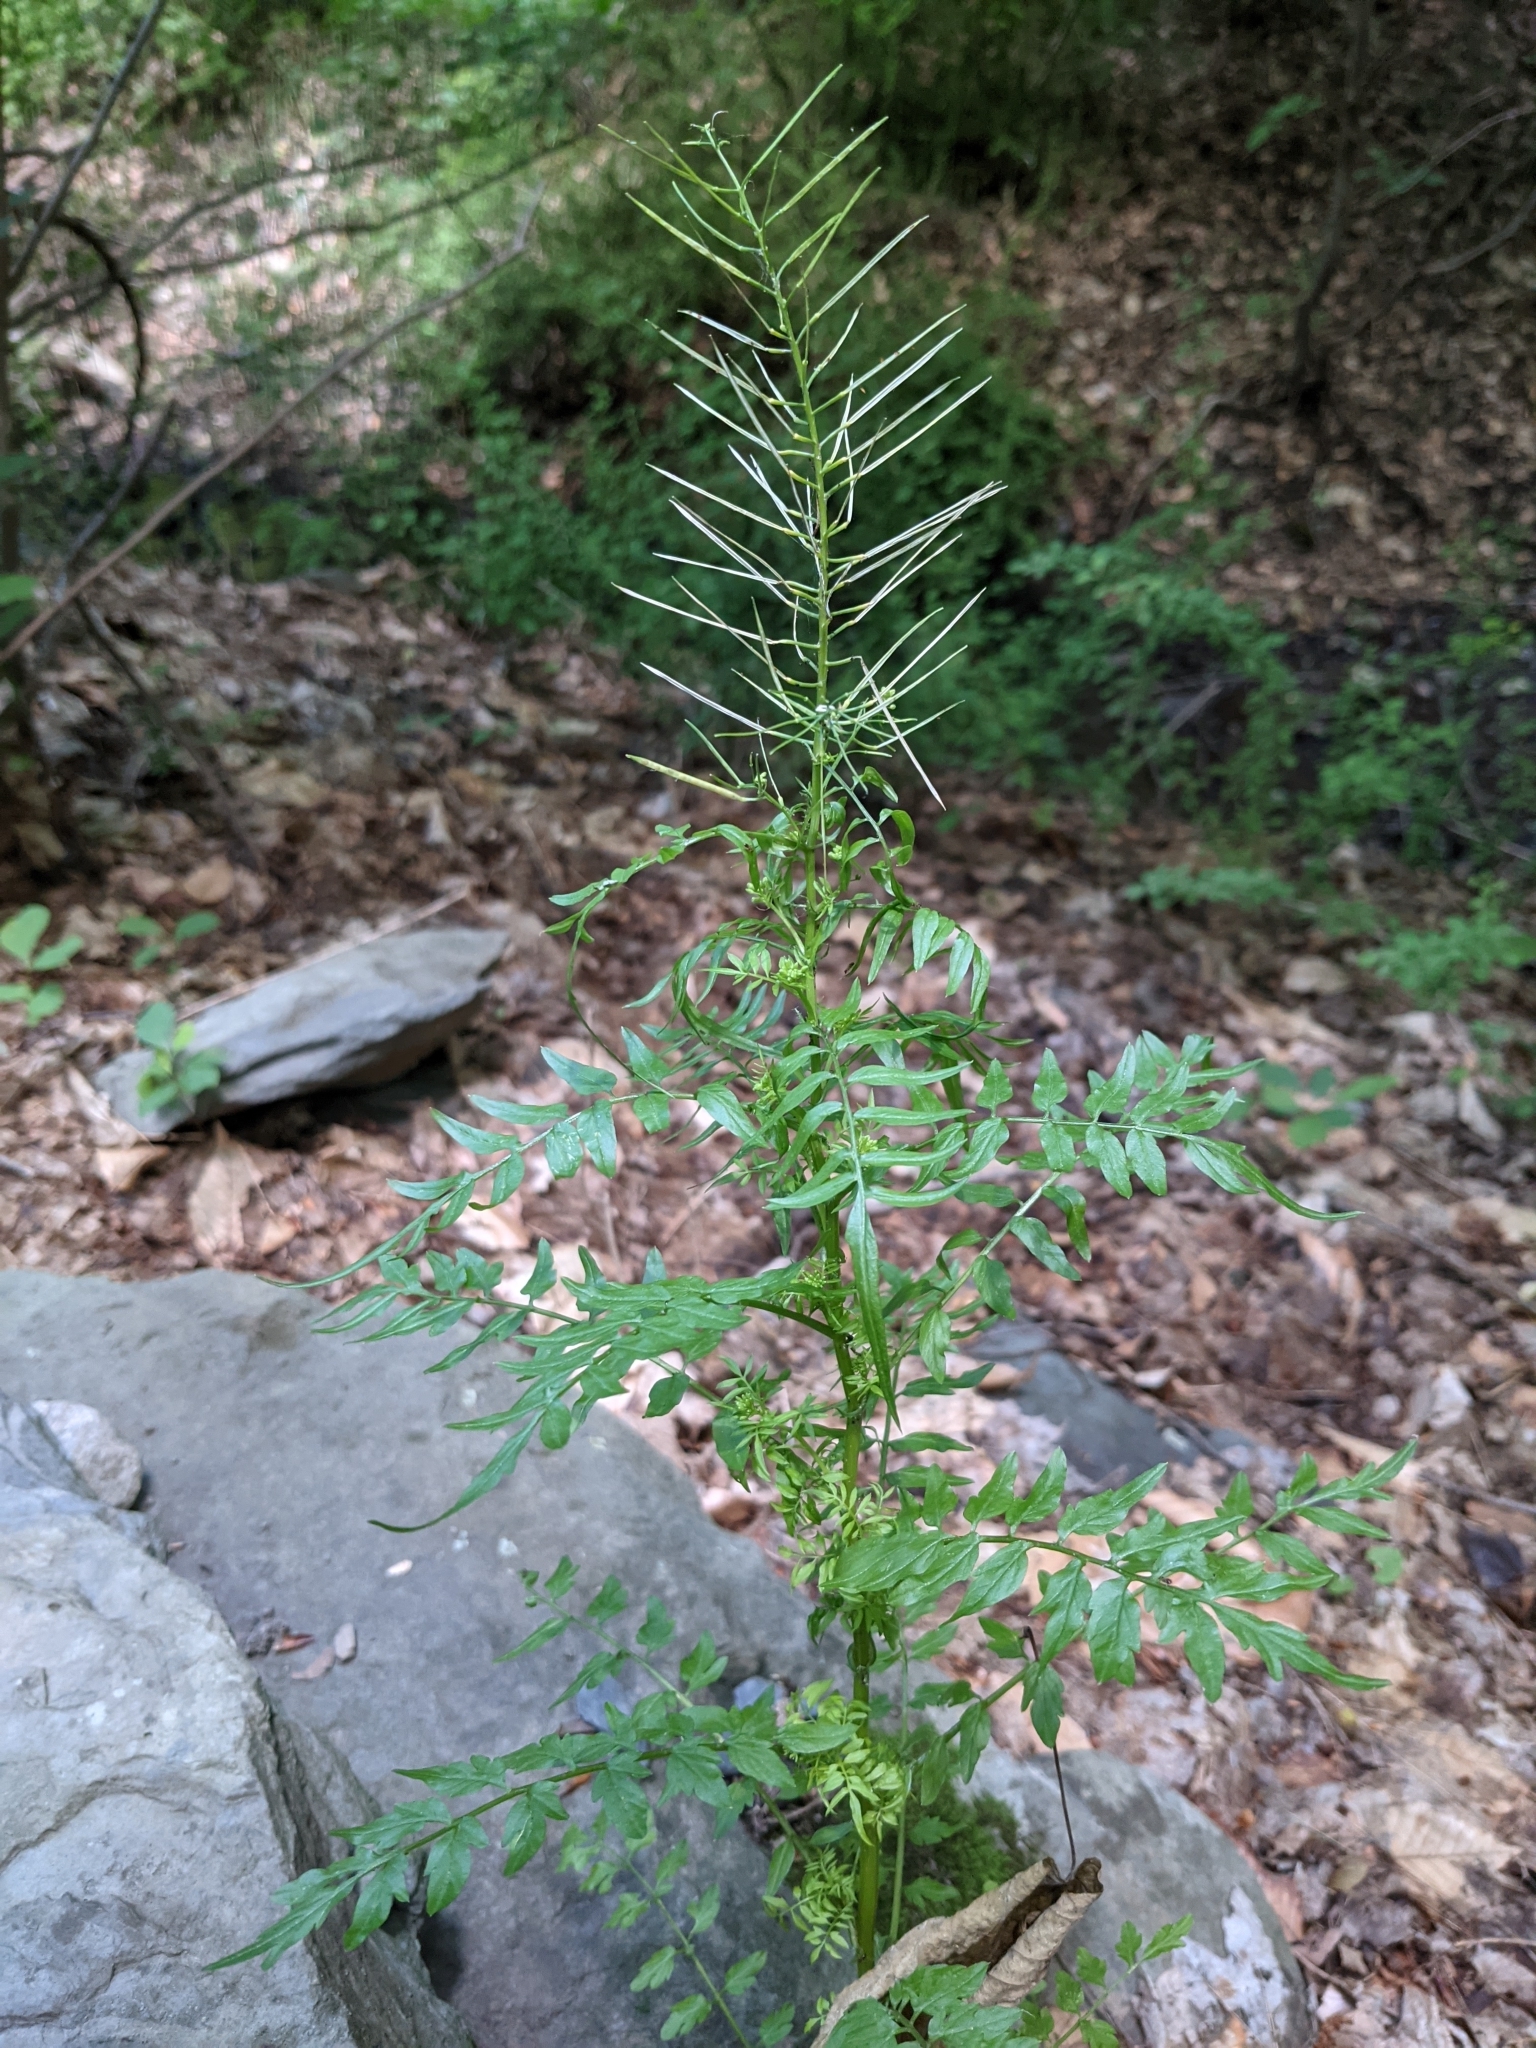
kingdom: Plantae
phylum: Tracheophyta
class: Magnoliopsida
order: Brassicales
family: Brassicaceae
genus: Cardamine
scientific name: Cardamine impatiens
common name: Narrow-leaved bitter-cress
